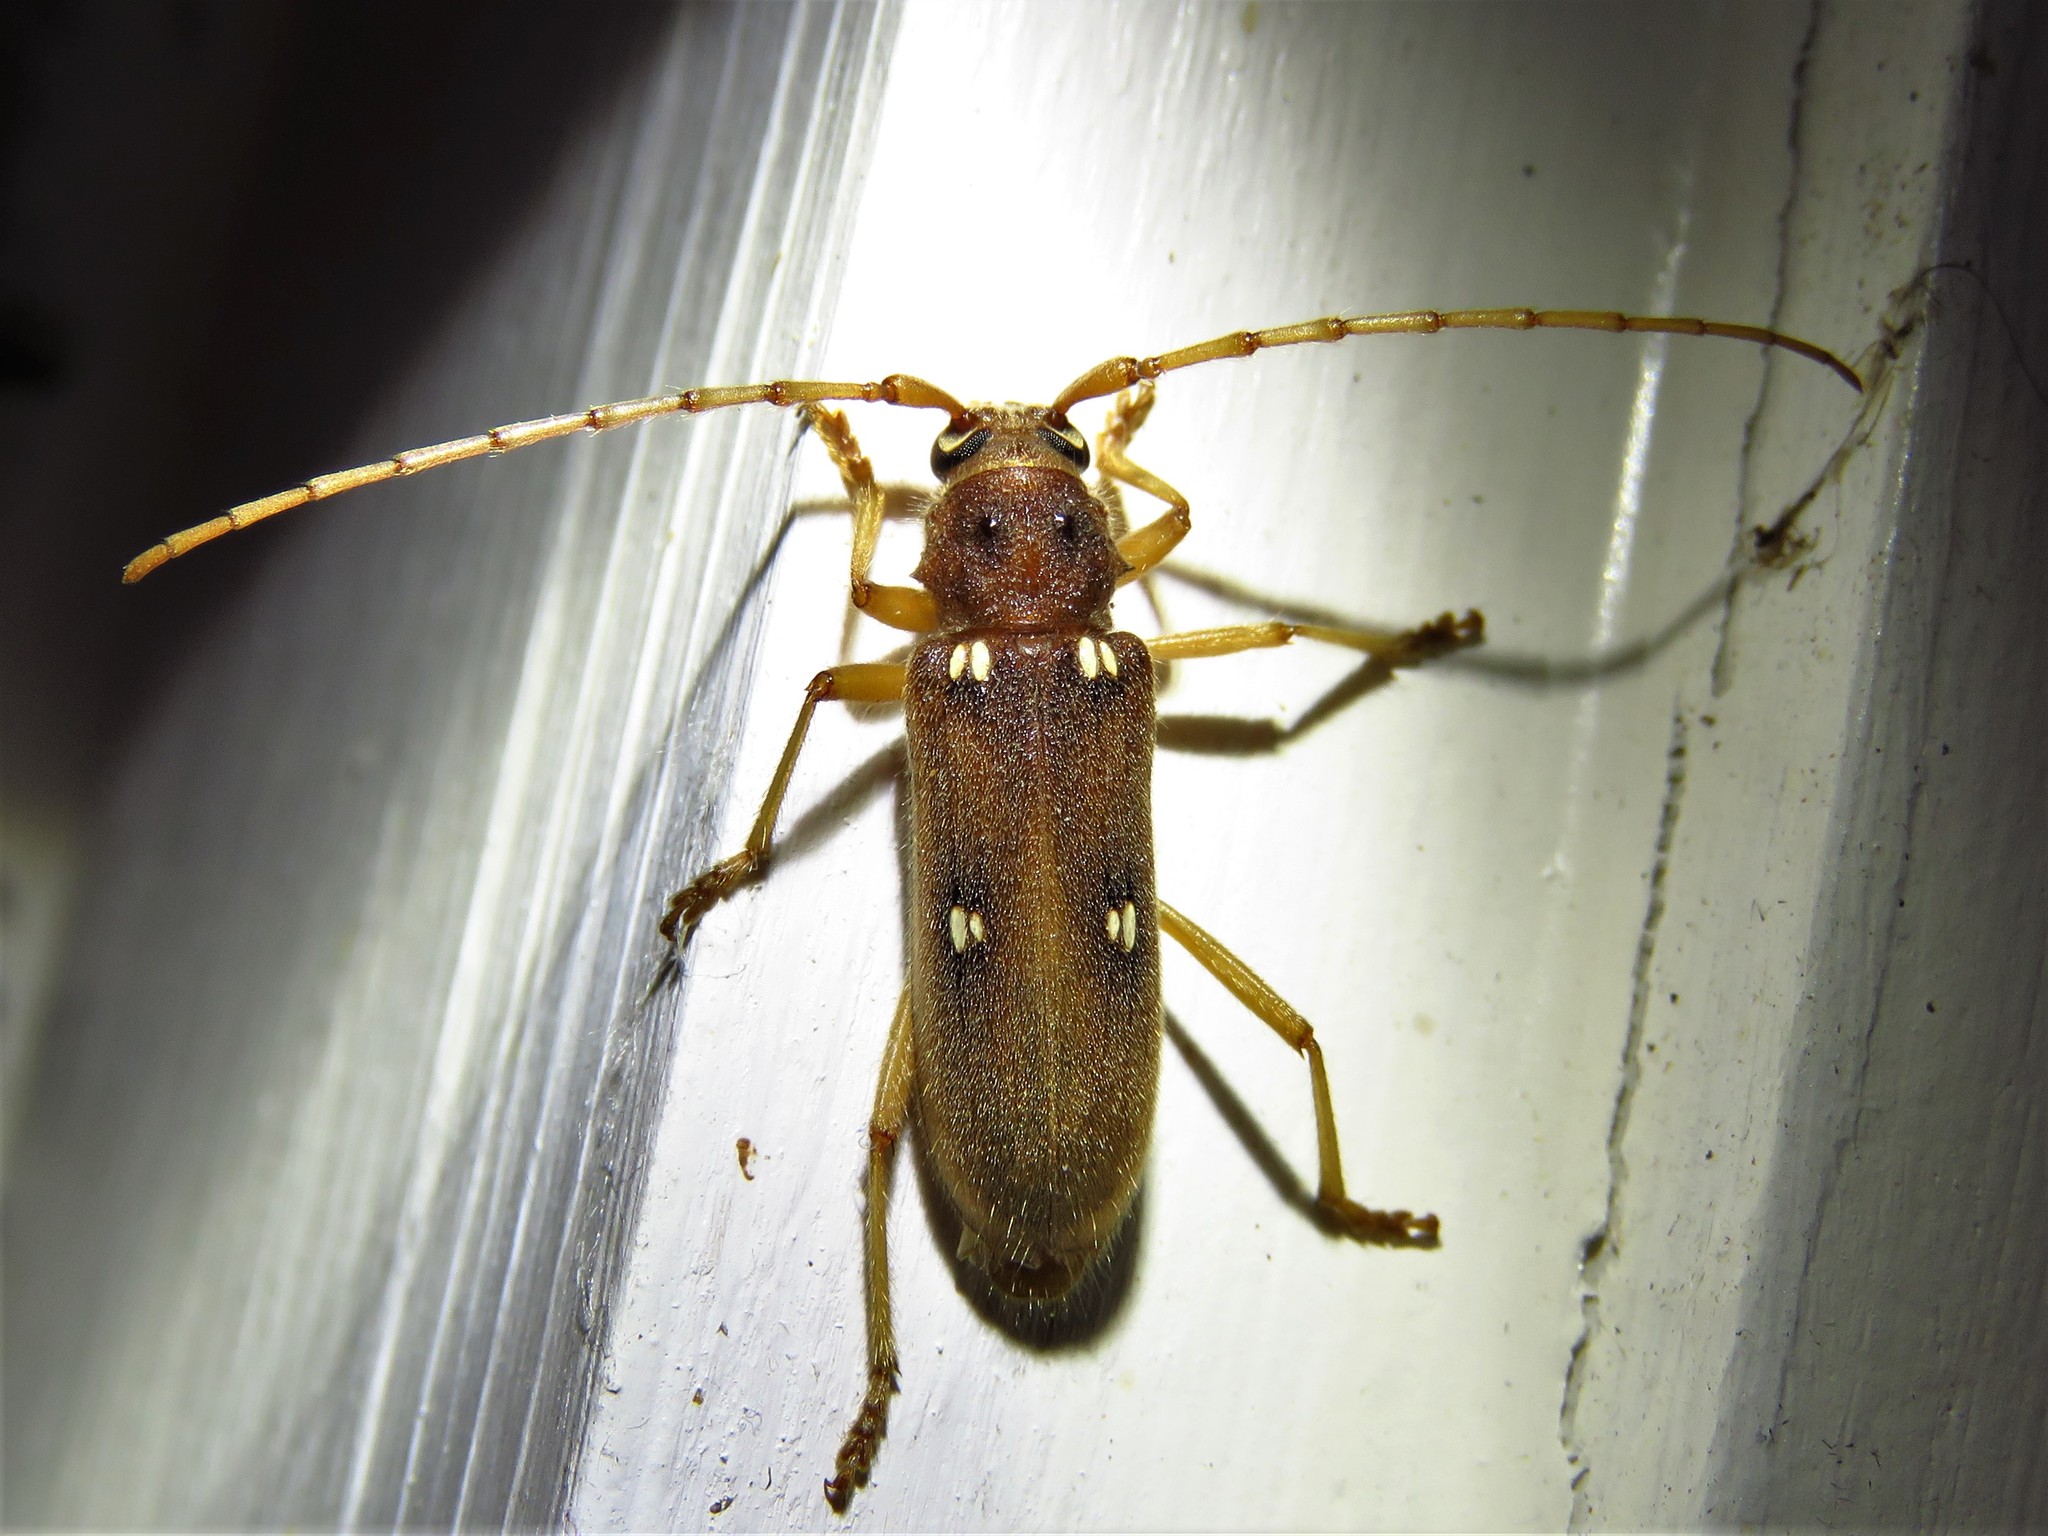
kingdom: Animalia
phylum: Arthropoda
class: Insecta
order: Coleoptera
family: Cerambycidae
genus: Eburia
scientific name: Eburia haldemani
